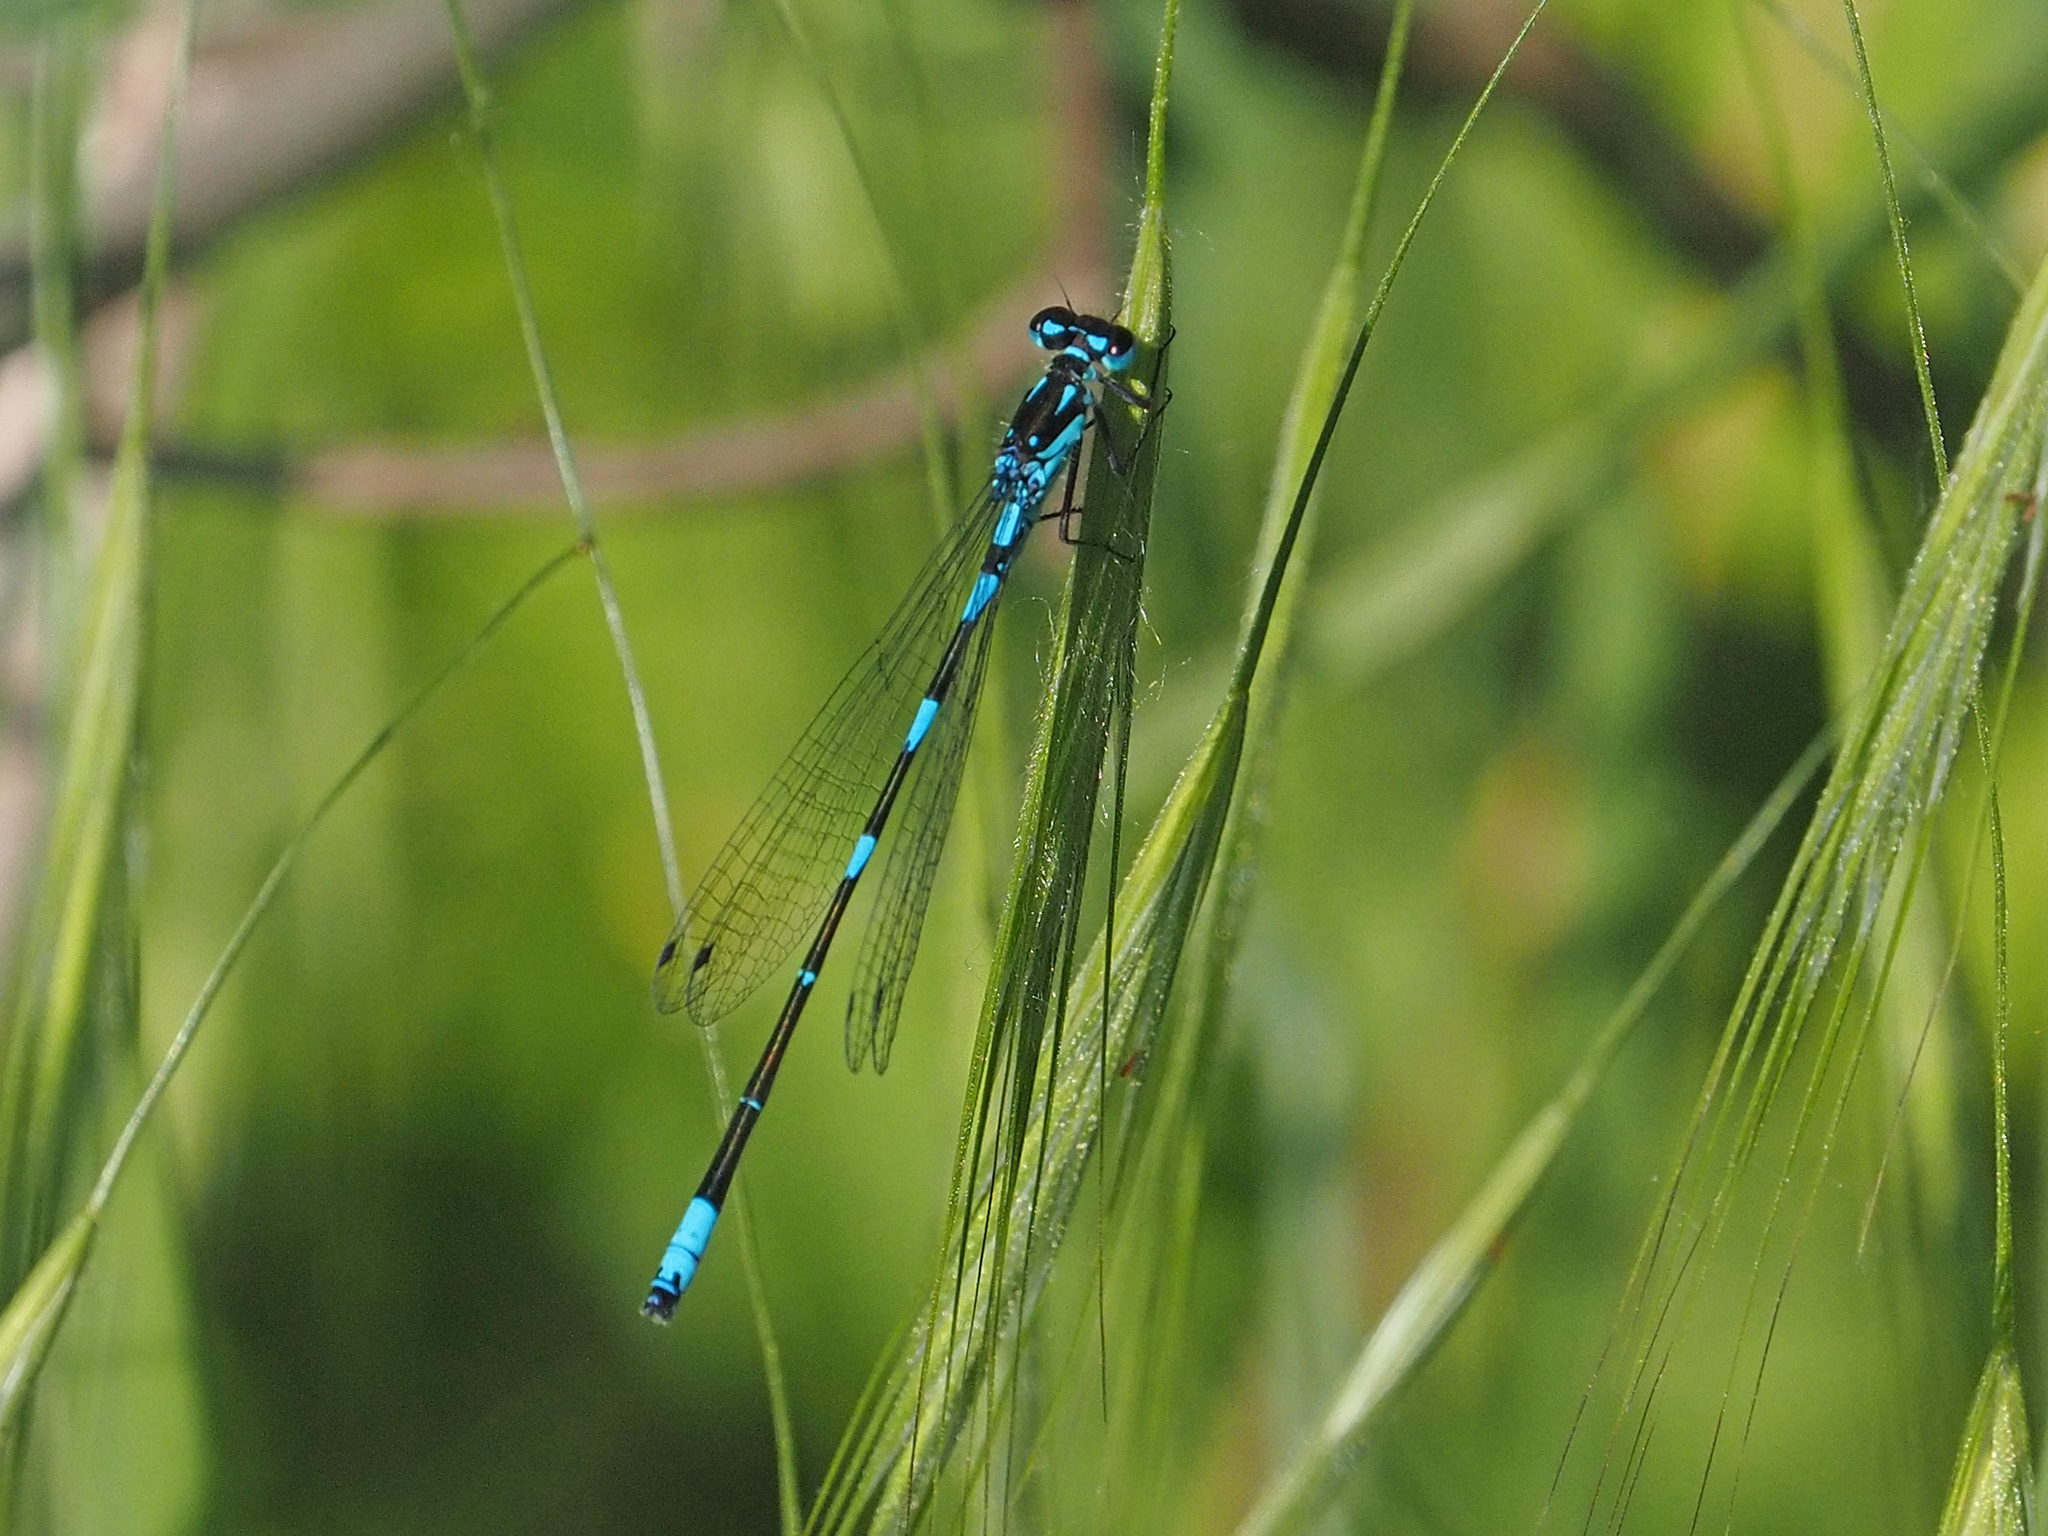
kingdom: Animalia
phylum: Arthropoda
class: Insecta
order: Odonata
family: Coenagrionidae
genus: Coenagrion
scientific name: Coenagrion pulchellum
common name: Variable bluet
